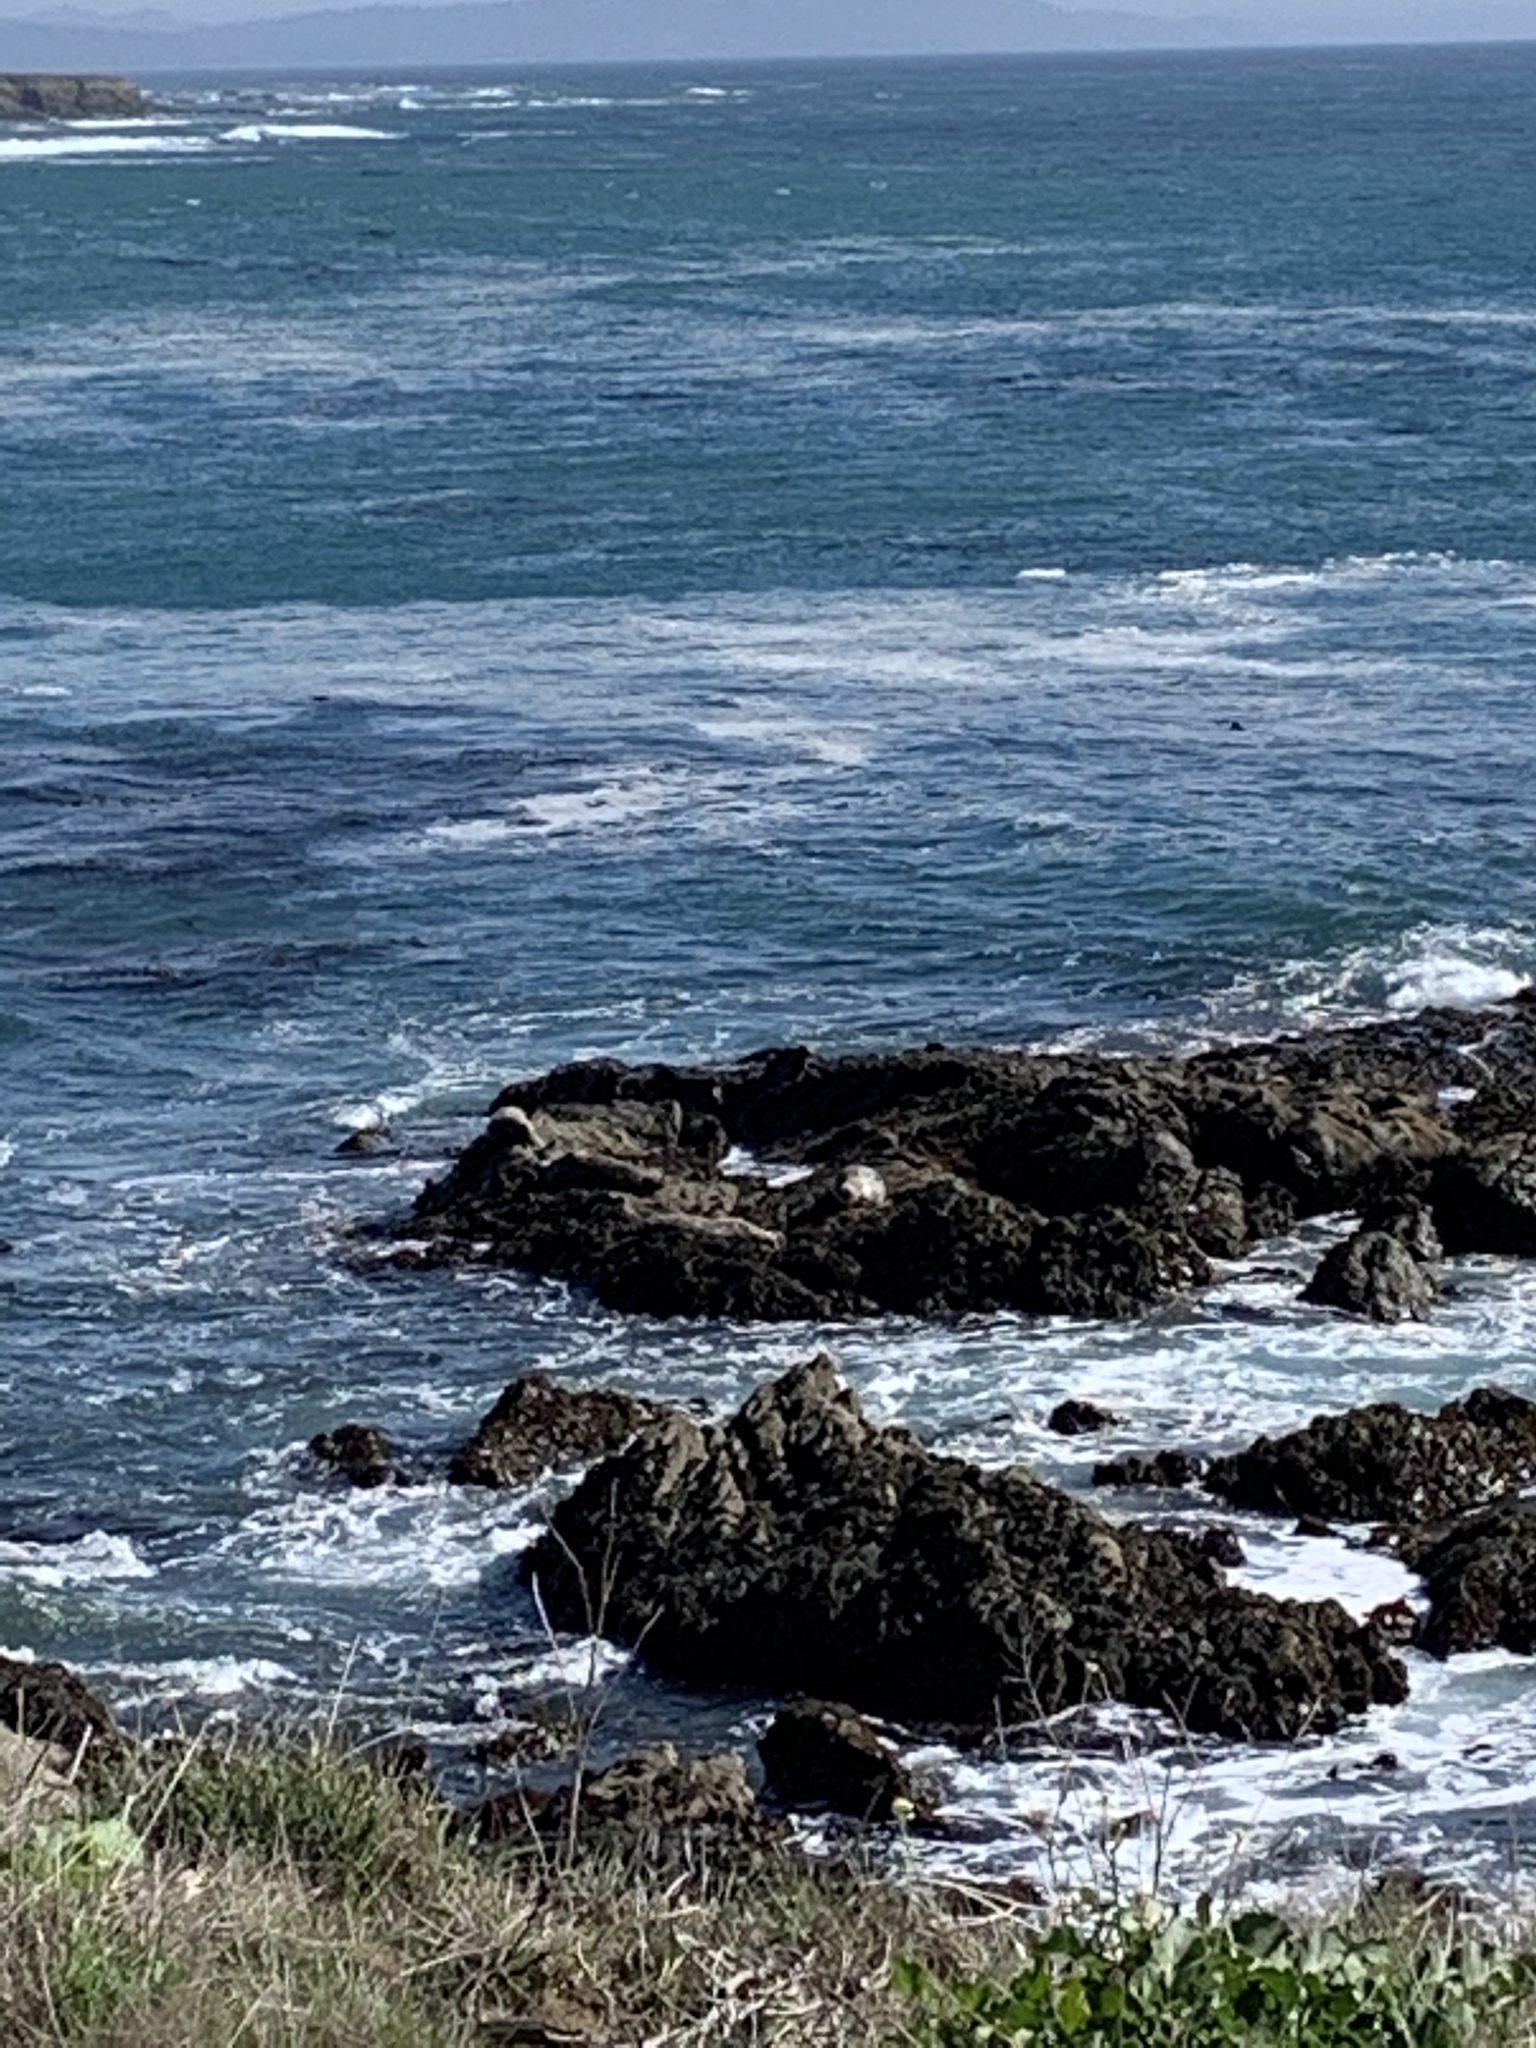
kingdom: Animalia
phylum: Chordata
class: Mammalia
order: Carnivora
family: Phocidae
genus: Phoca
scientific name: Phoca vitulina
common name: Harbor seal
